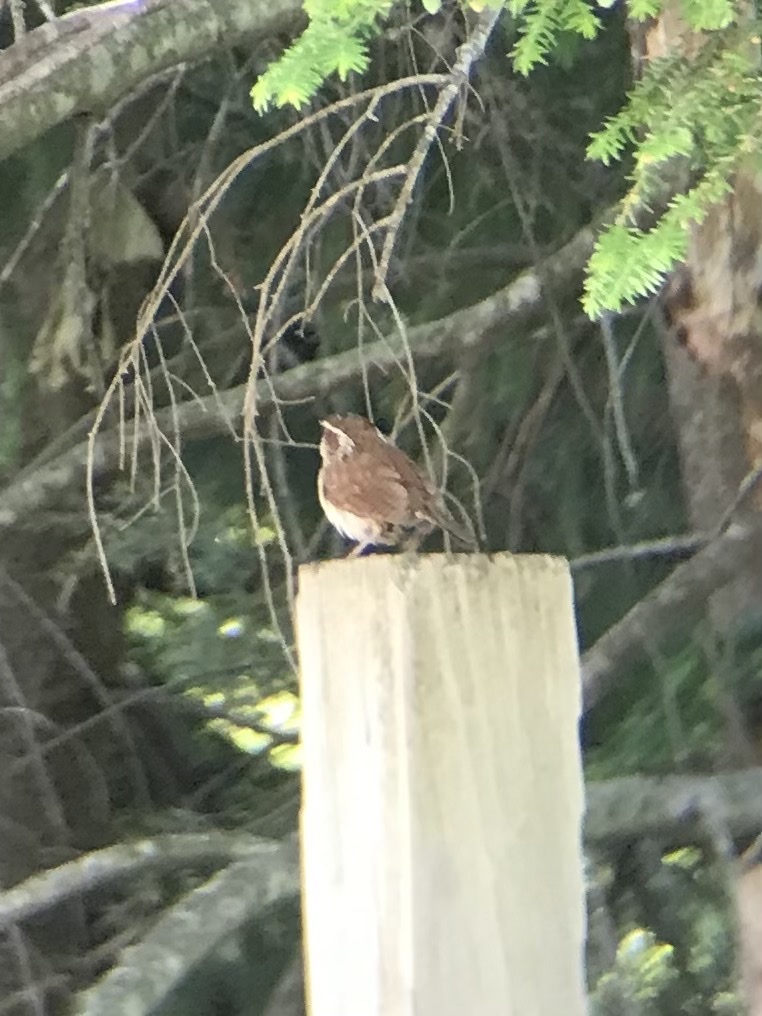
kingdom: Animalia
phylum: Chordata
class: Aves
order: Passeriformes
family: Troglodytidae
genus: Thryothorus
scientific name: Thryothorus ludovicianus
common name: Carolina wren
